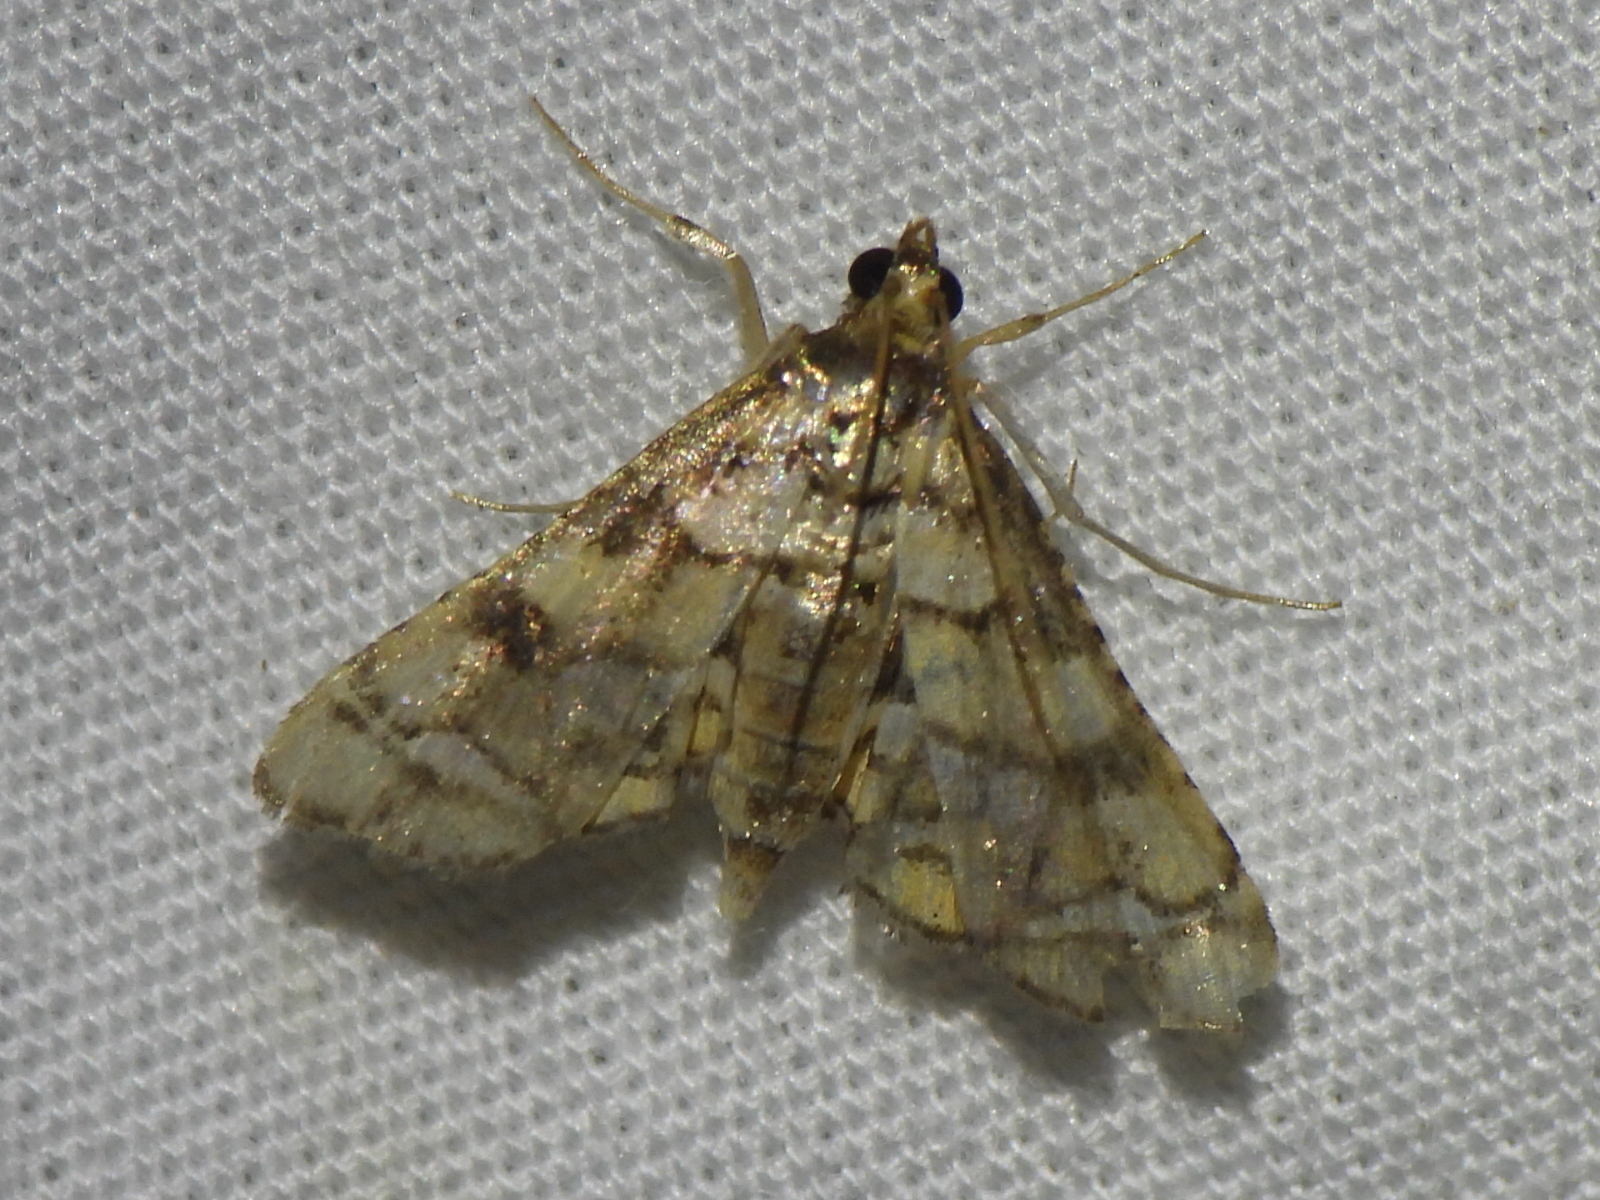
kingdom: Animalia
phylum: Arthropoda
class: Insecta
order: Lepidoptera
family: Crambidae
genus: Hileithia
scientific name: Hileithia magualis
